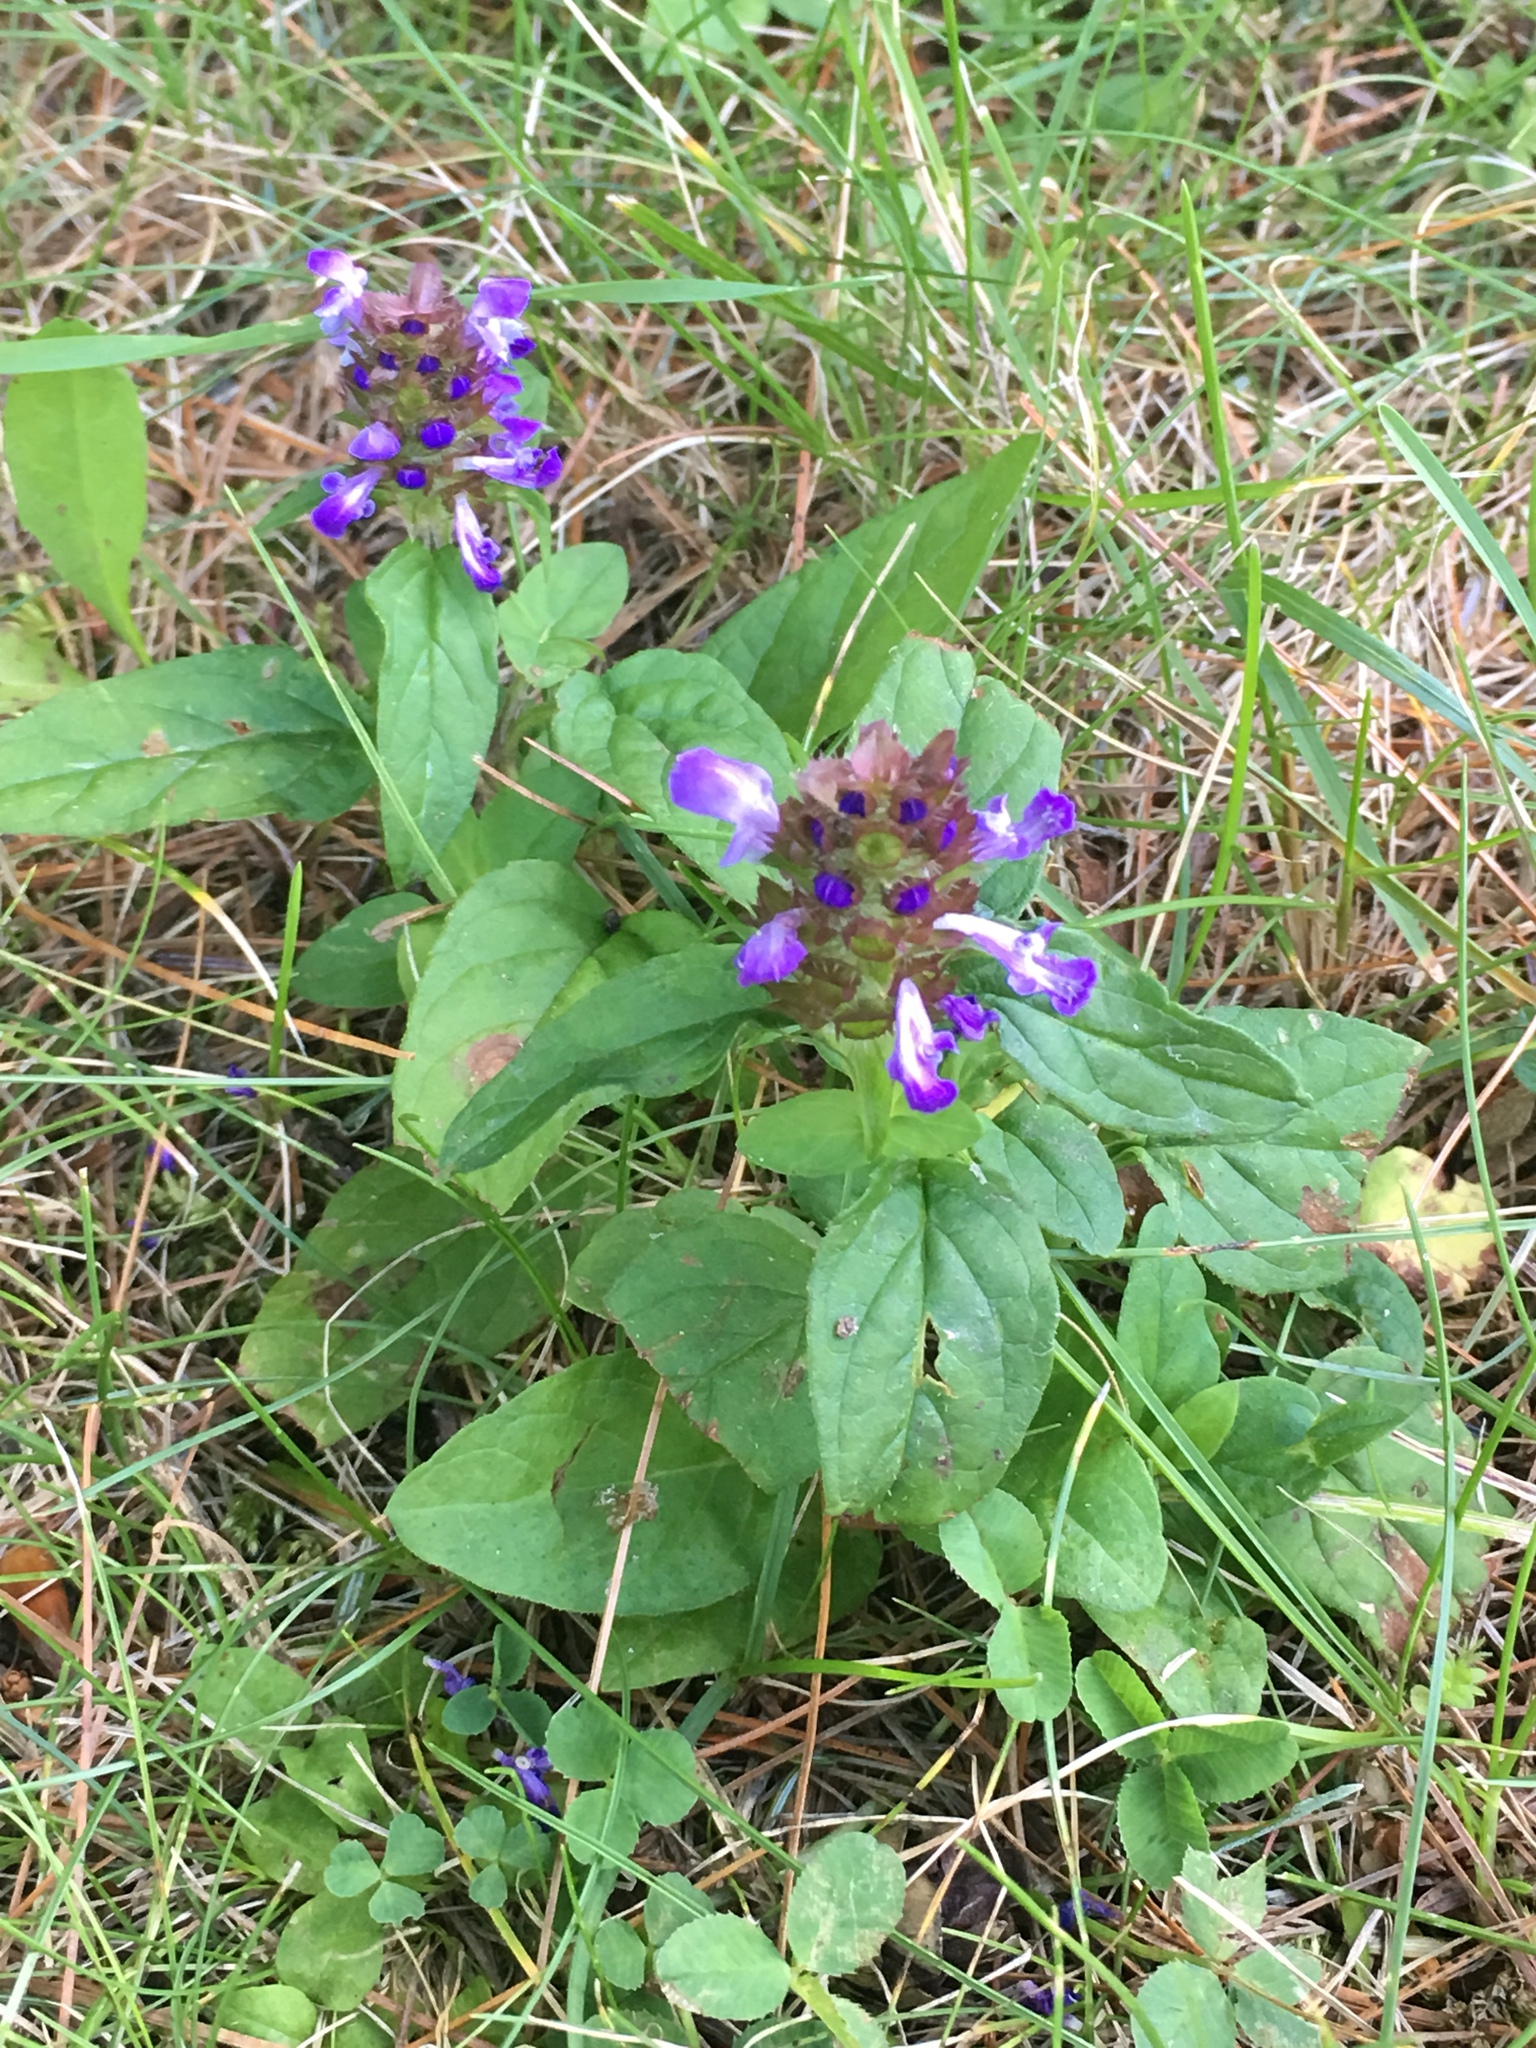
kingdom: Plantae
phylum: Tracheophyta
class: Magnoliopsida
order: Lamiales
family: Lamiaceae
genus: Prunella
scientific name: Prunella vulgaris
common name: Heal-all
